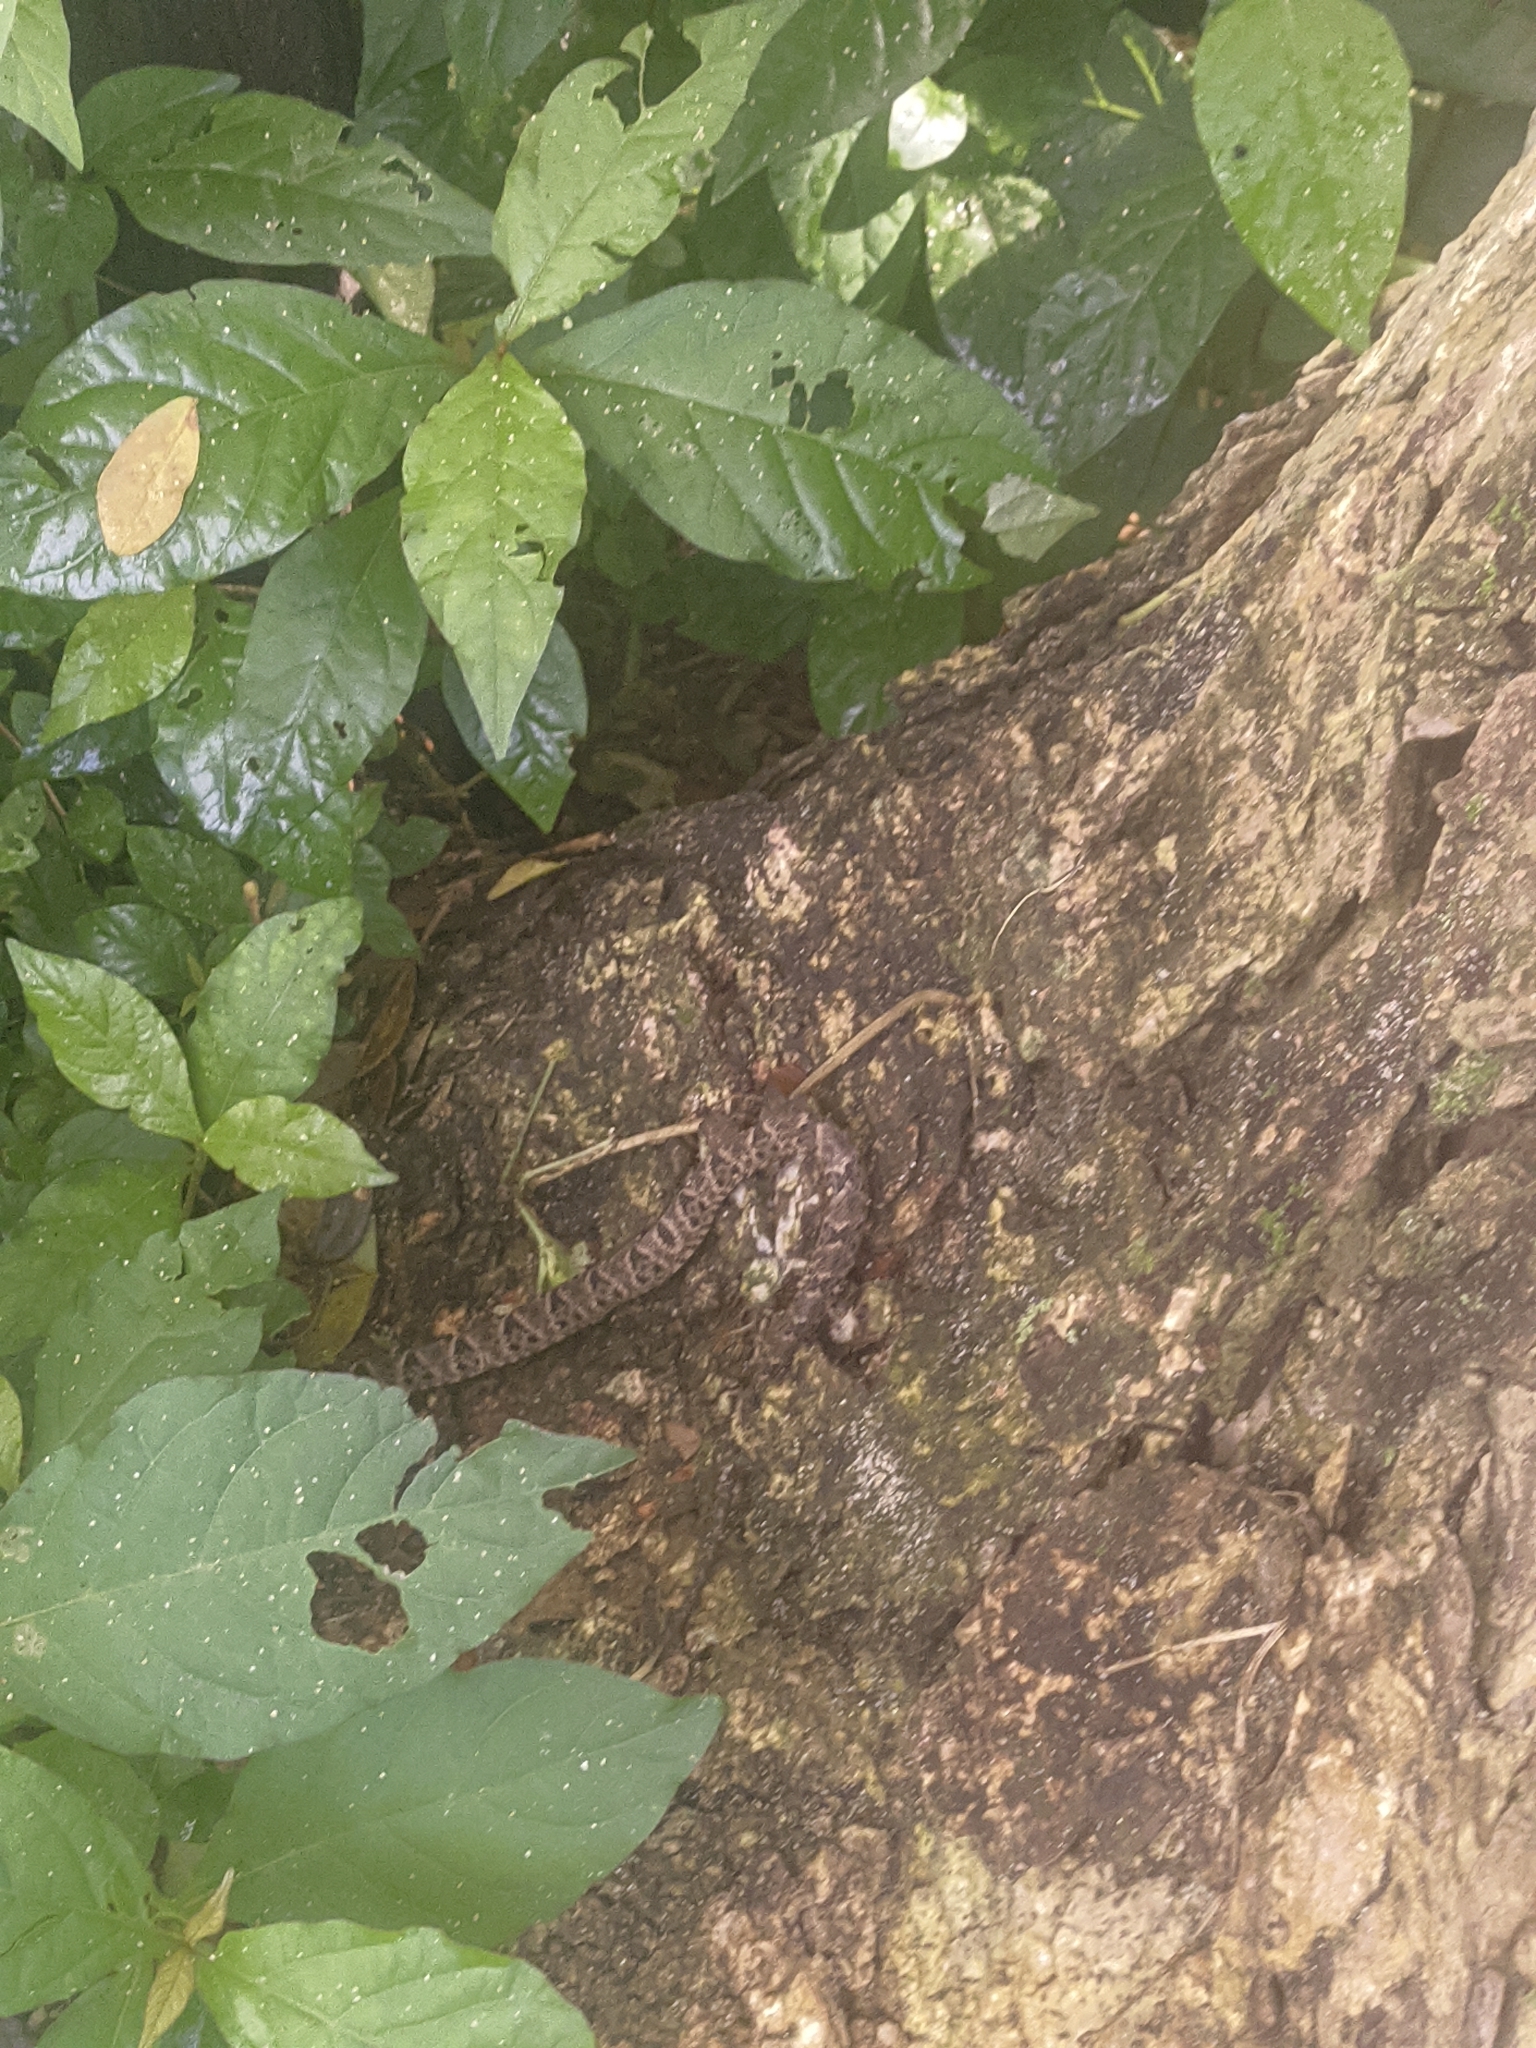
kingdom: Animalia
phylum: Chordata
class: Squamata
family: Viperidae
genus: Bothrops
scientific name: Bothrops asper
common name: Terciopelo
